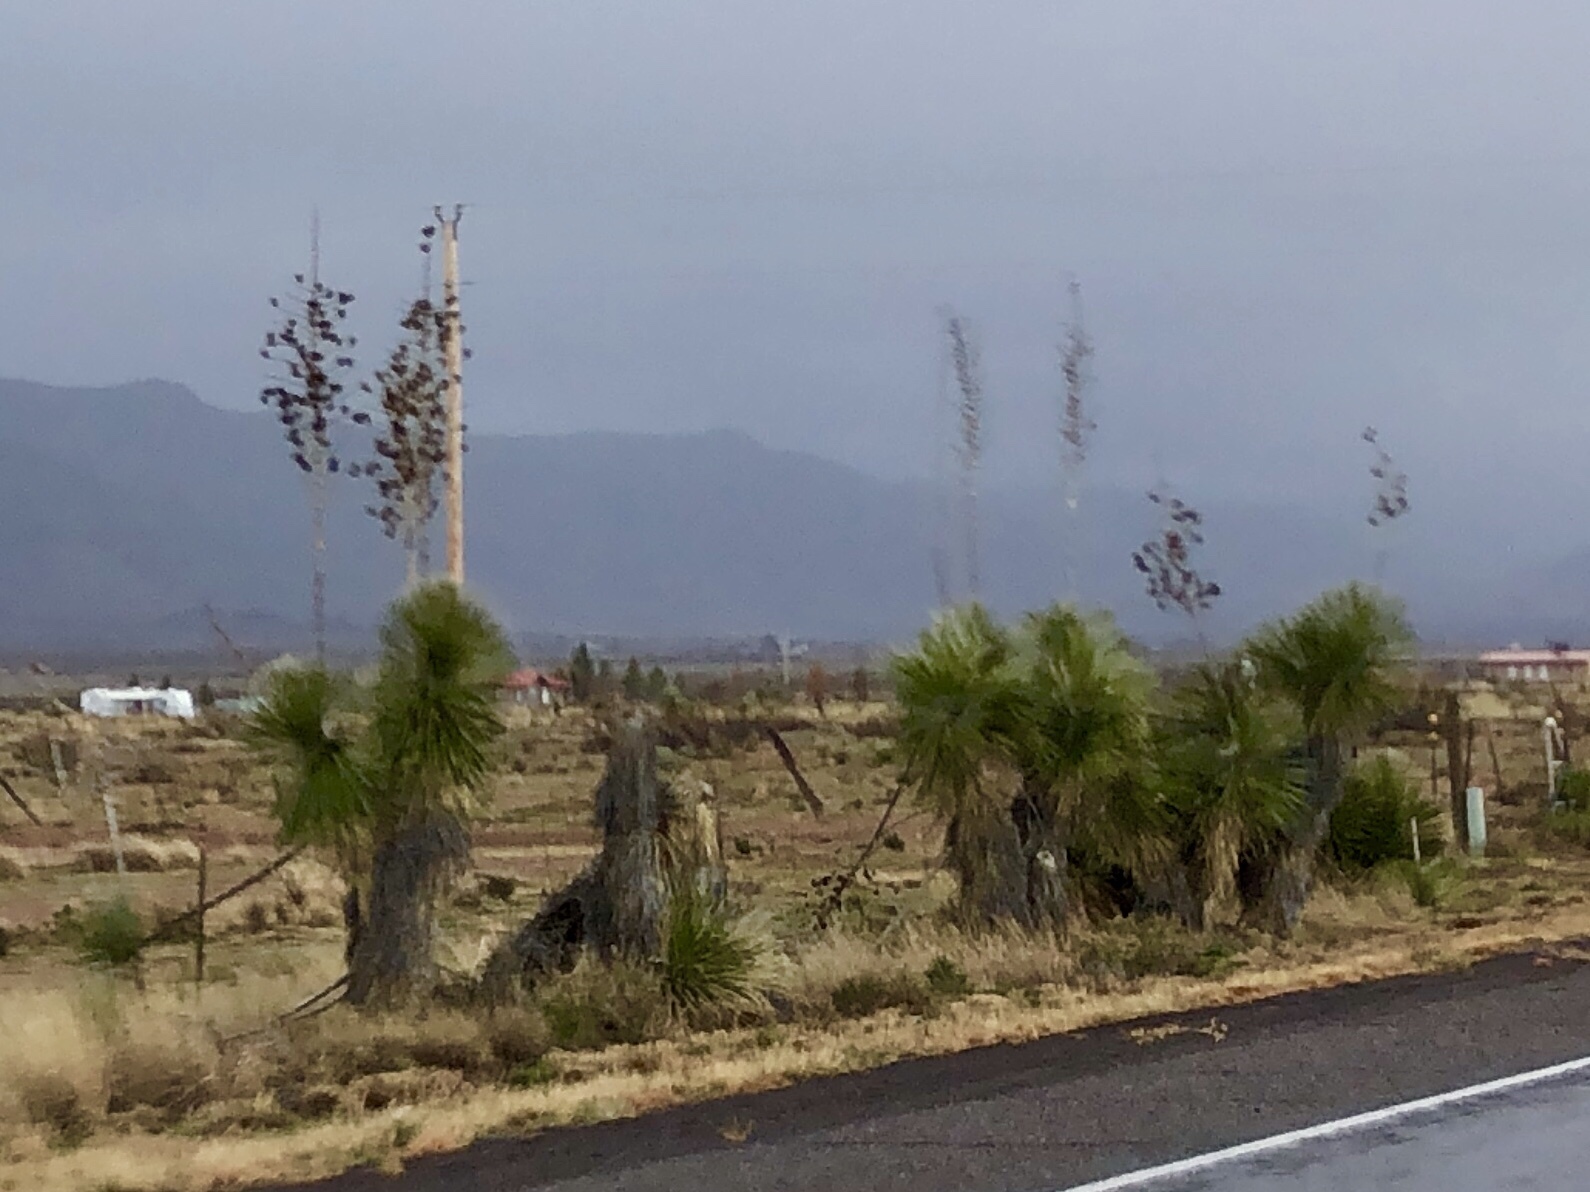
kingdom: Plantae
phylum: Tracheophyta
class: Liliopsida
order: Asparagales
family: Asparagaceae
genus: Yucca
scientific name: Yucca elata
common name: Palmella
